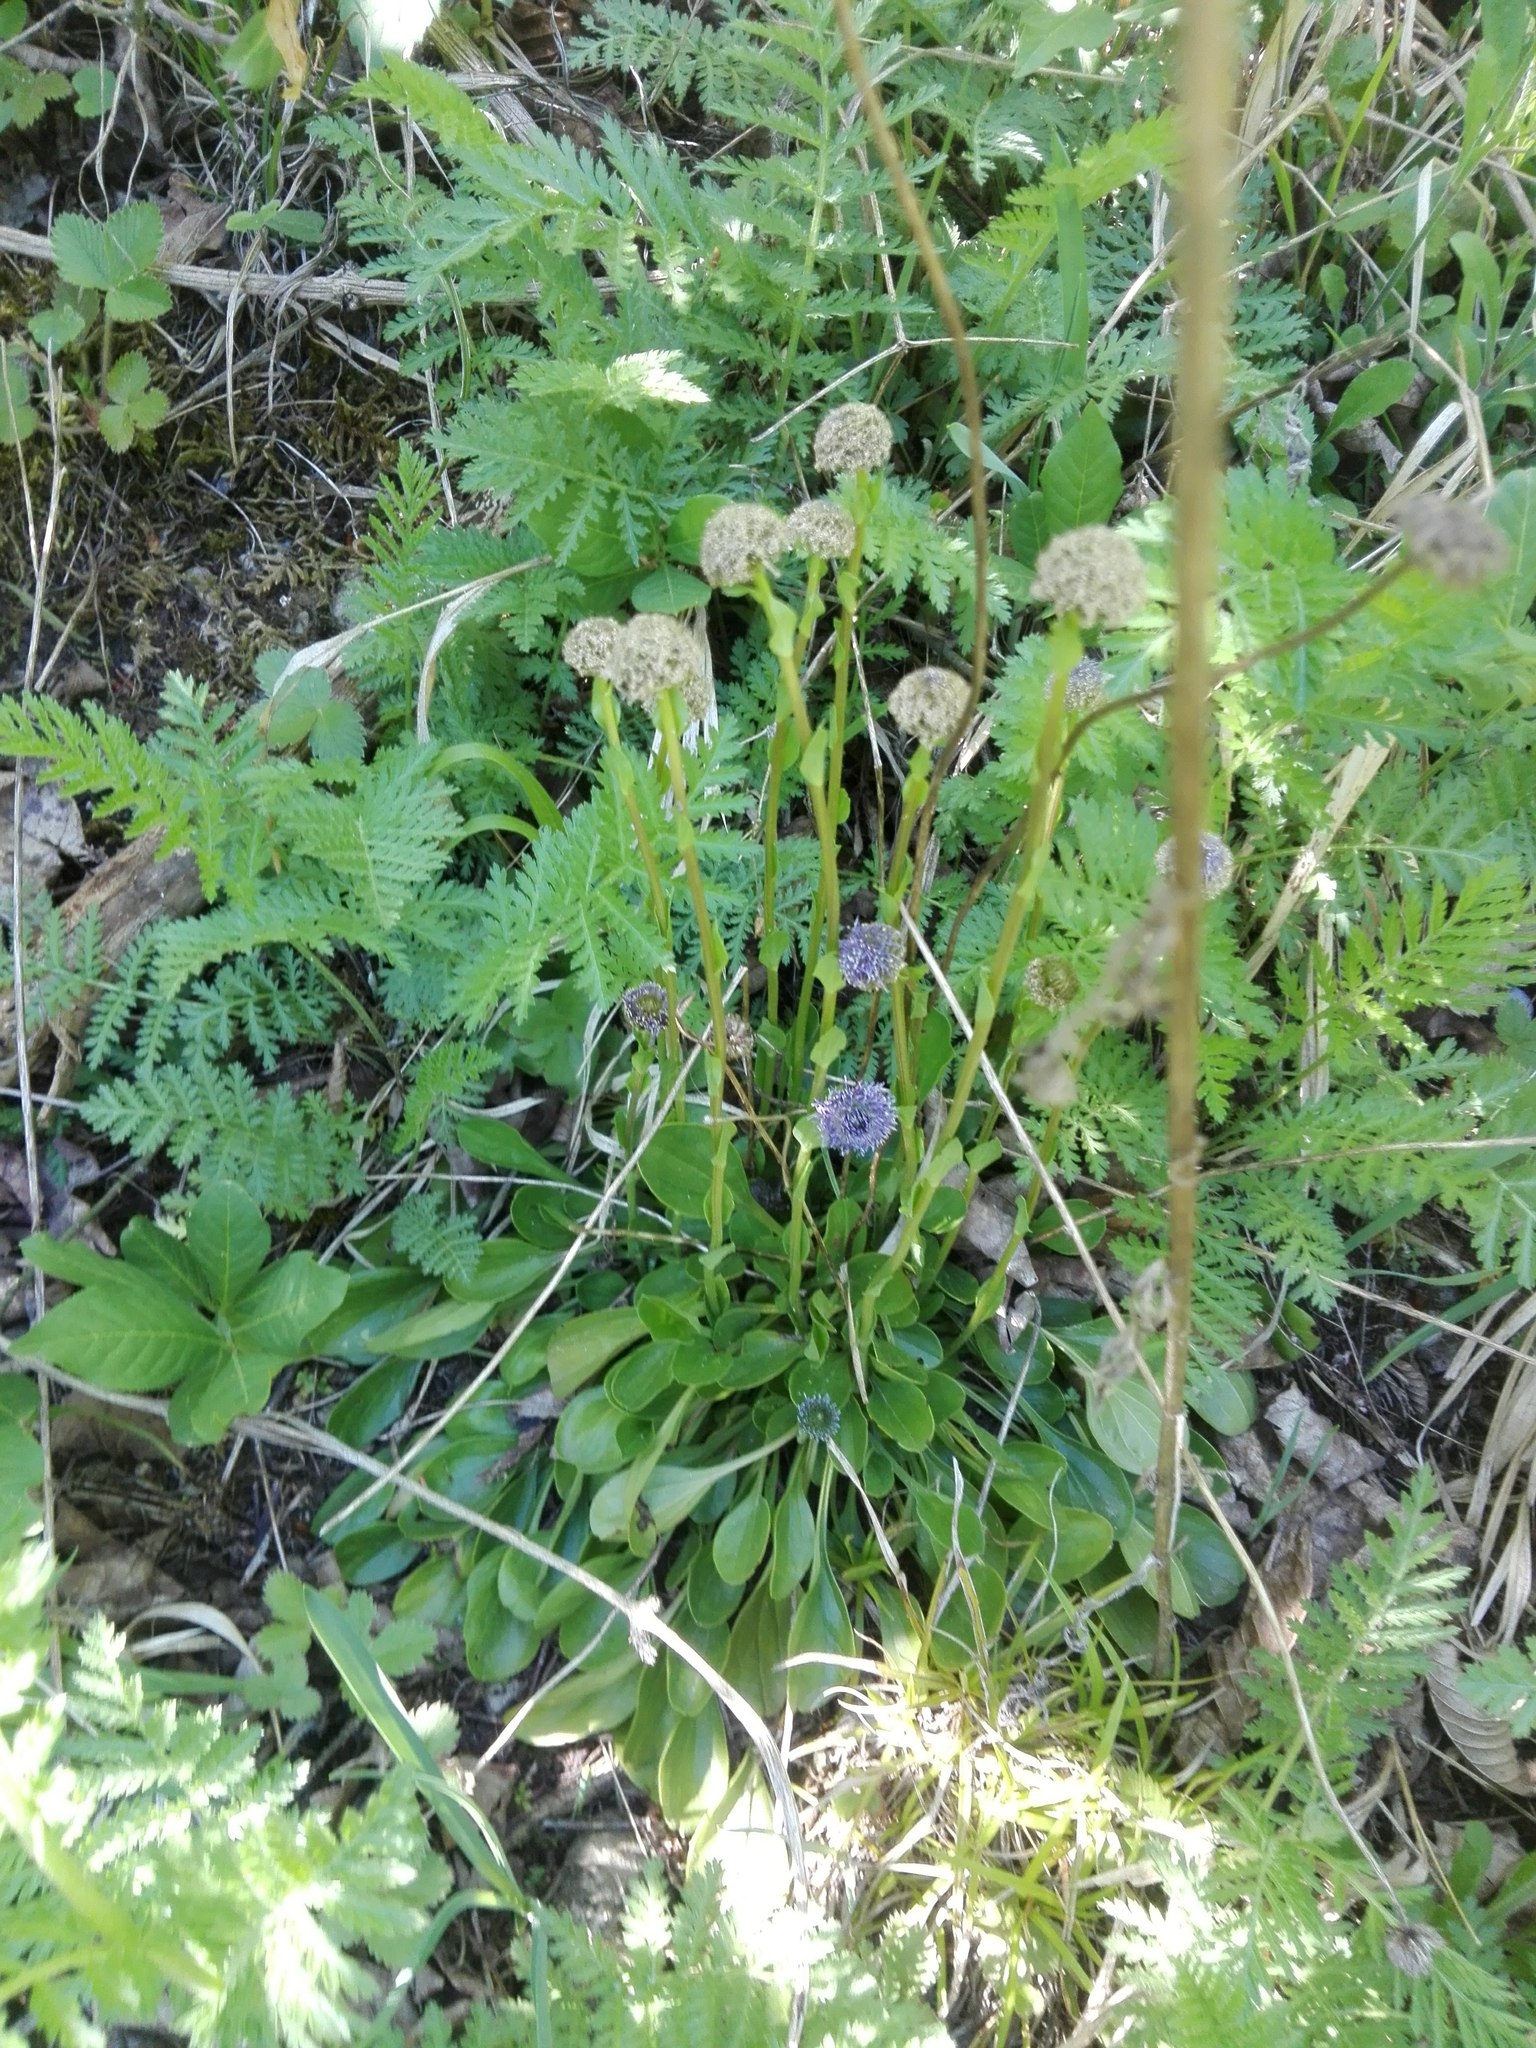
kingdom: Plantae
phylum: Tracheophyta
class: Magnoliopsida
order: Lamiales
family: Plantaginaceae
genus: Globularia
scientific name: Globularia bisnagarica
